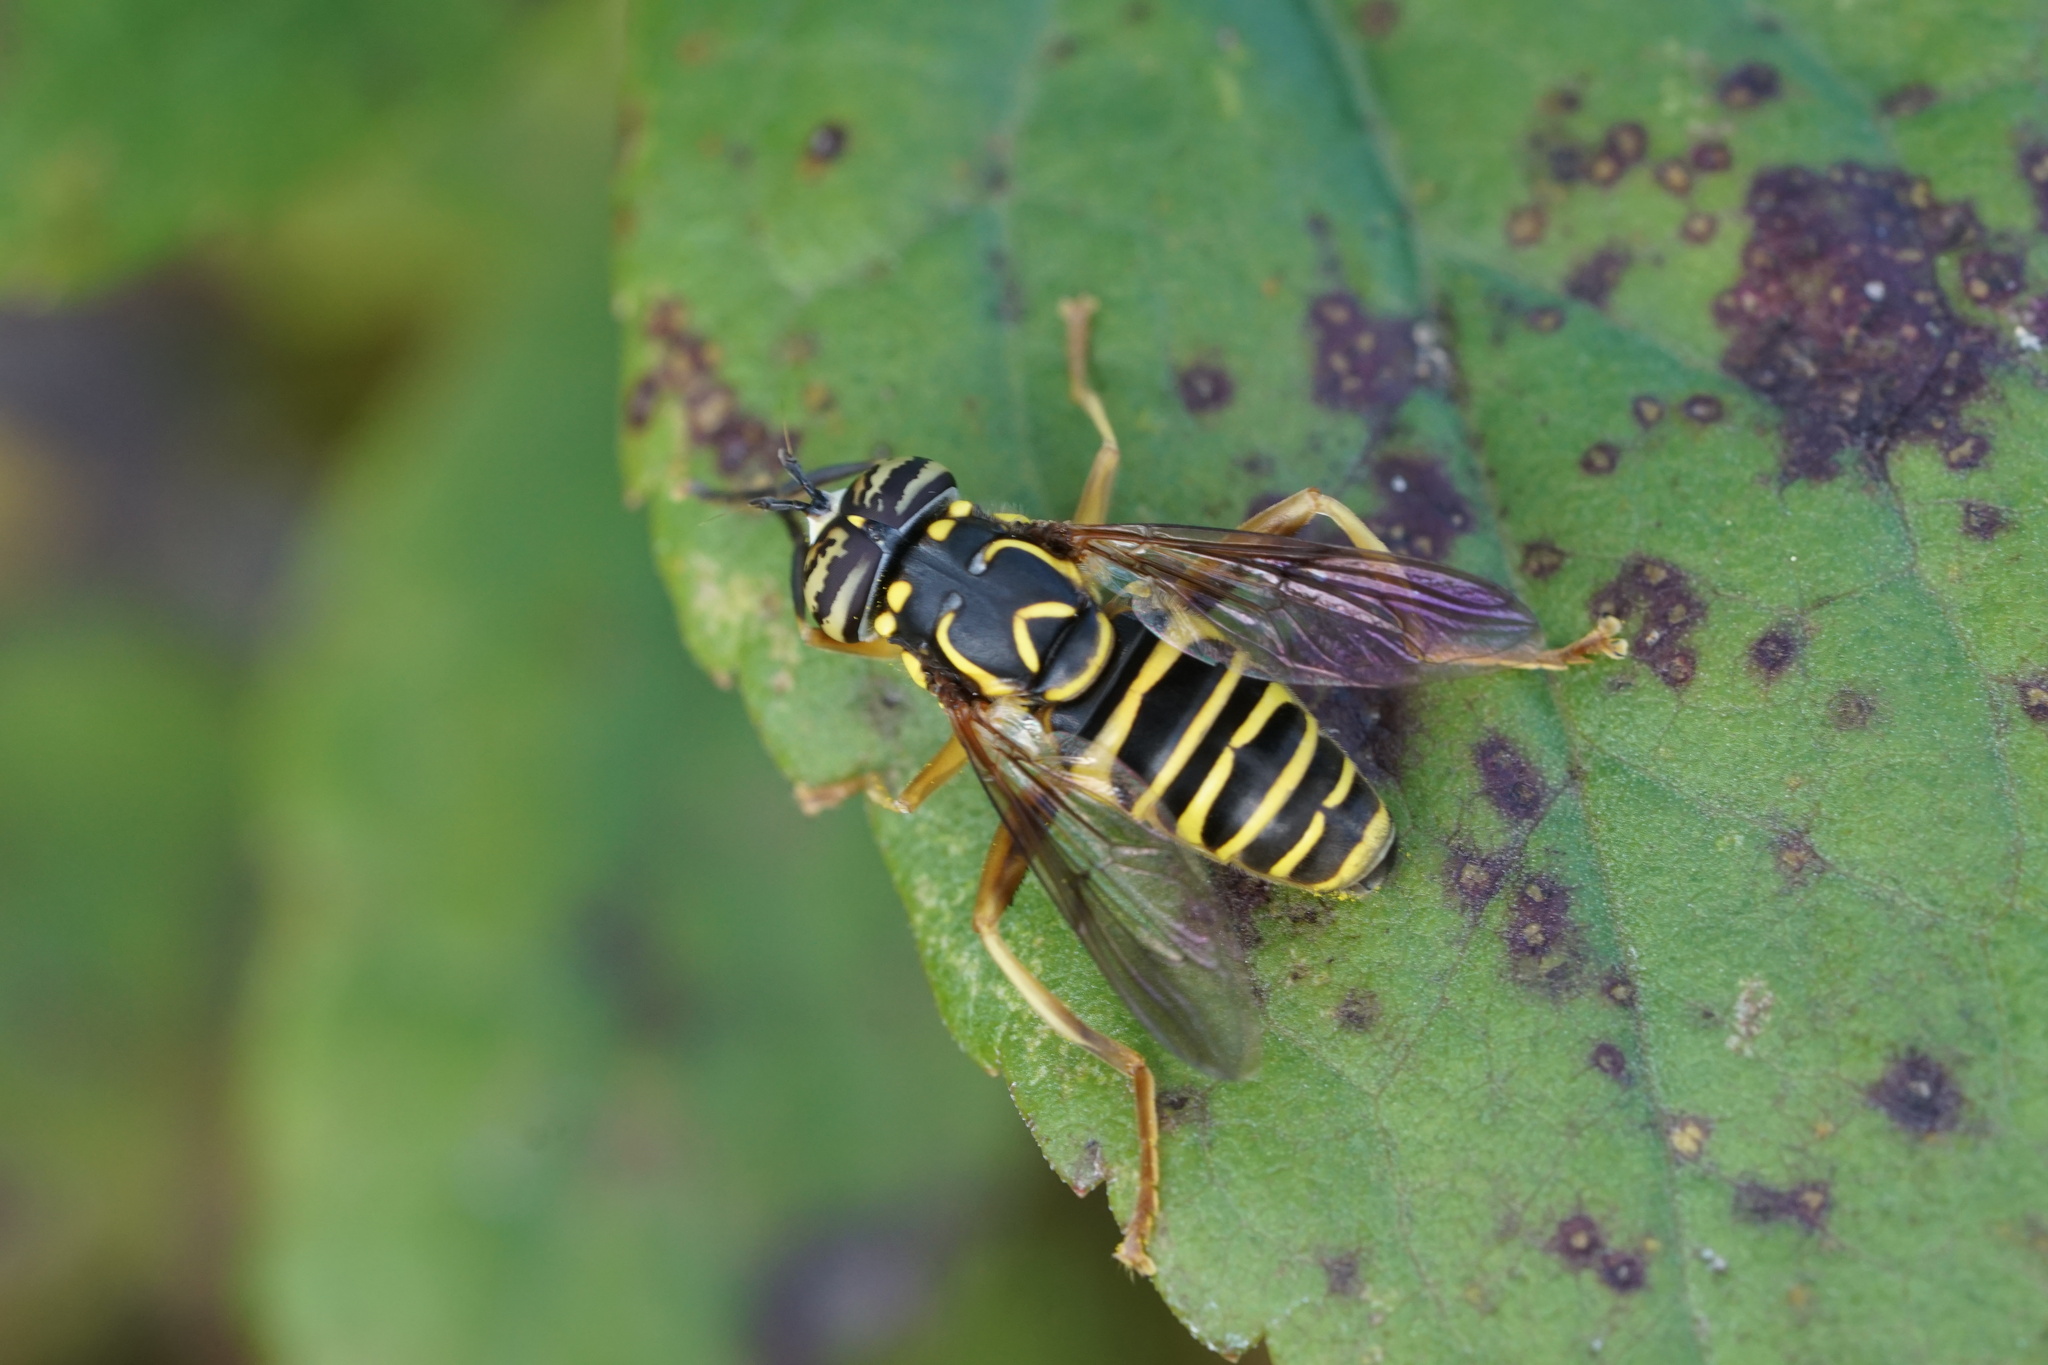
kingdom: Animalia
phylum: Arthropoda
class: Insecta
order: Diptera
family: Syrphidae
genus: Spilomyia
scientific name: Spilomyia longicornis
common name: Eastern hornet fly
